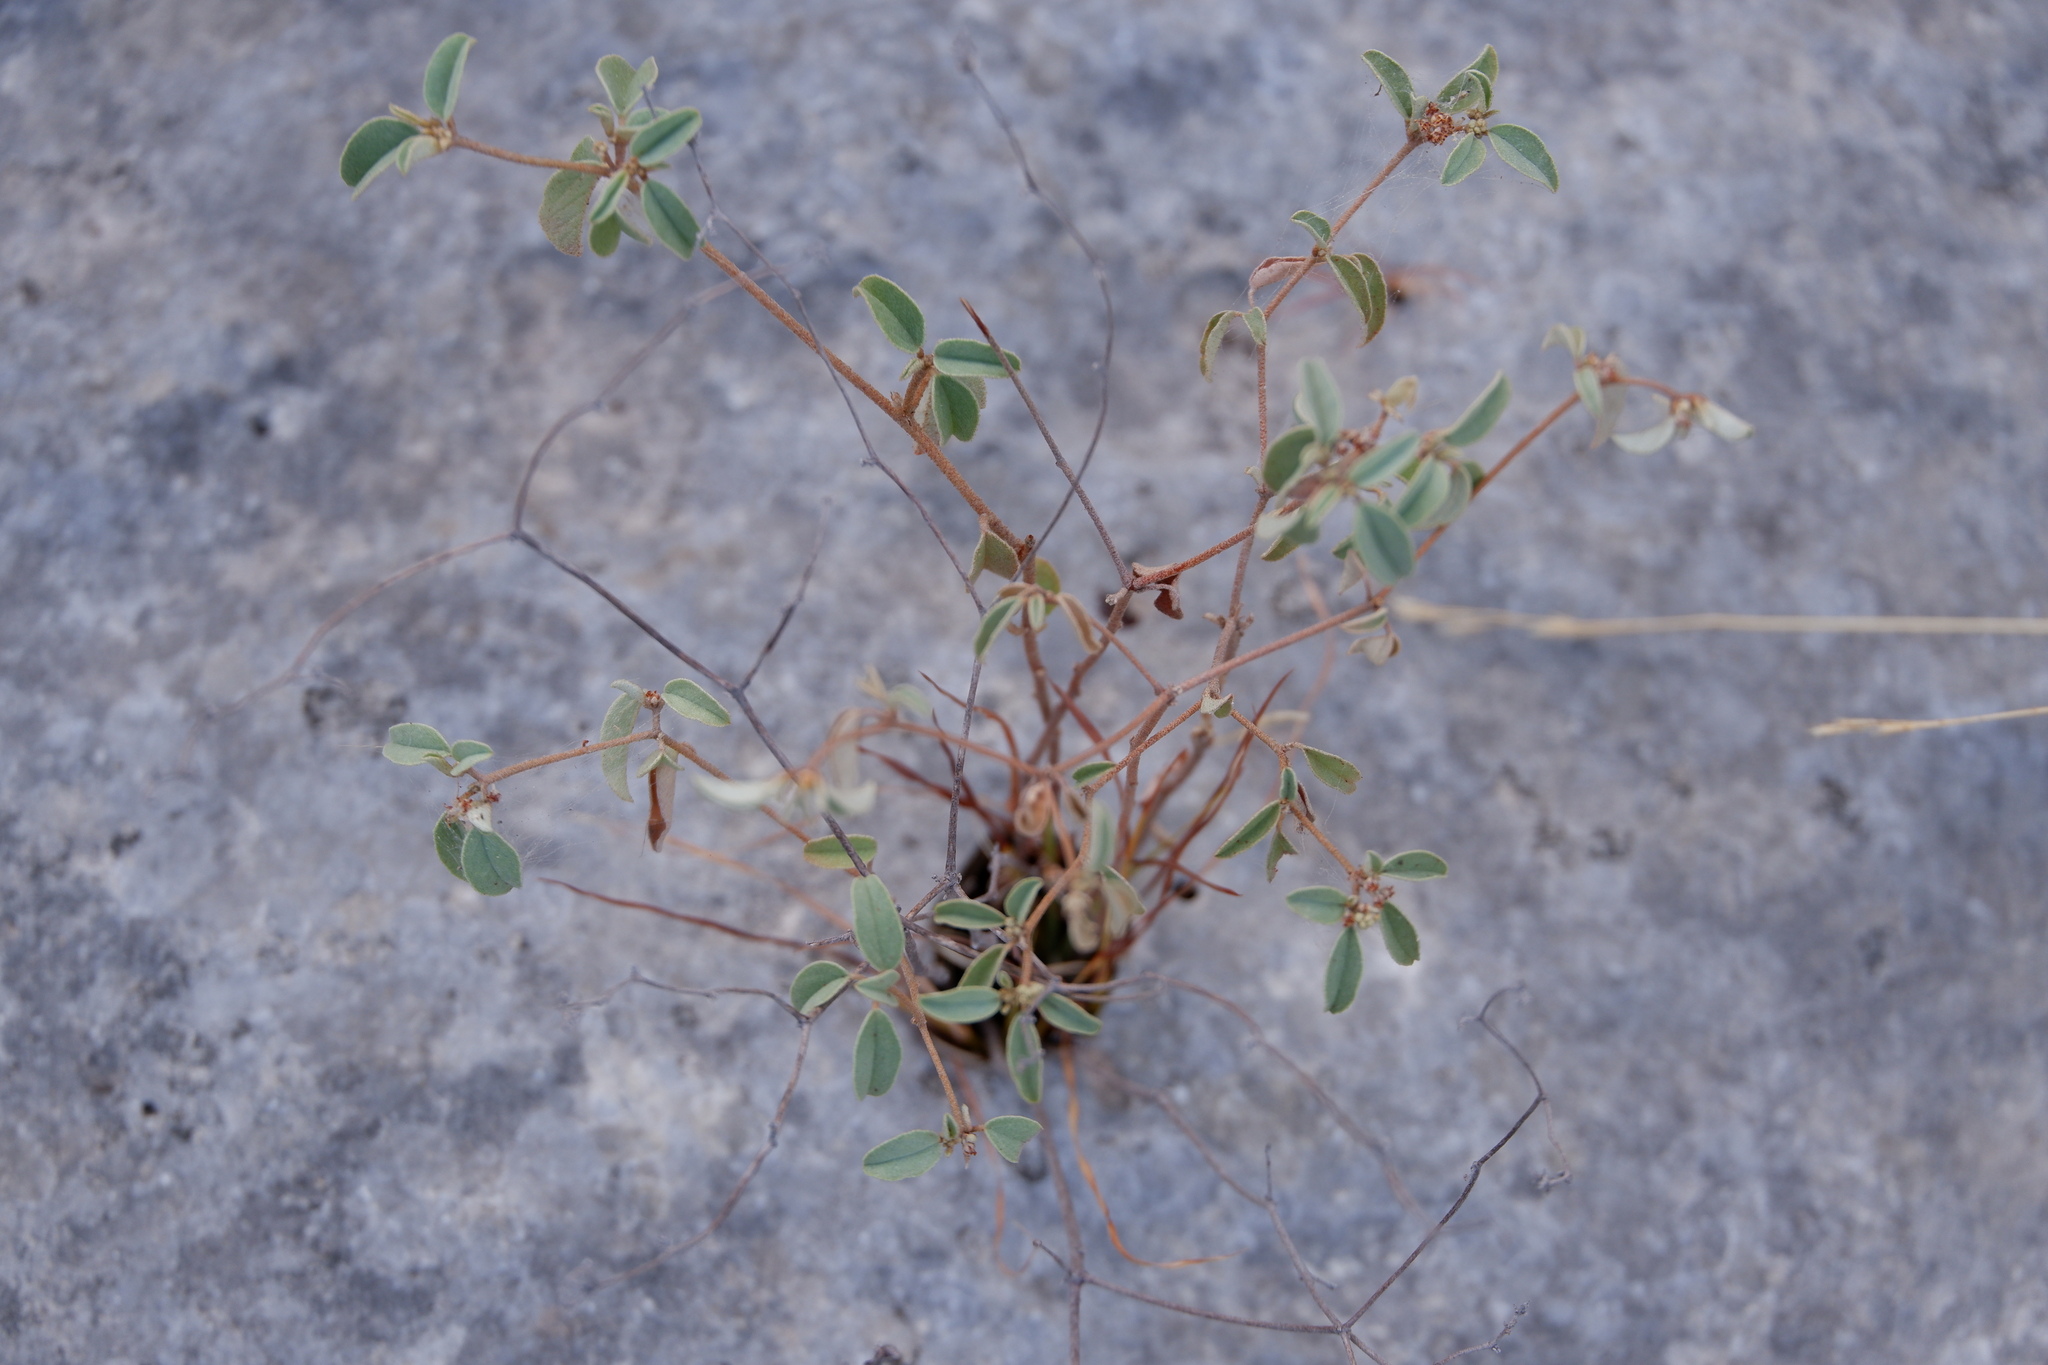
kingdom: Plantae
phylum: Tracheophyta
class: Magnoliopsida
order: Malpighiales
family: Euphorbiaceae
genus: Croton
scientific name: Croton monanthogynus
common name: One-seed croton
